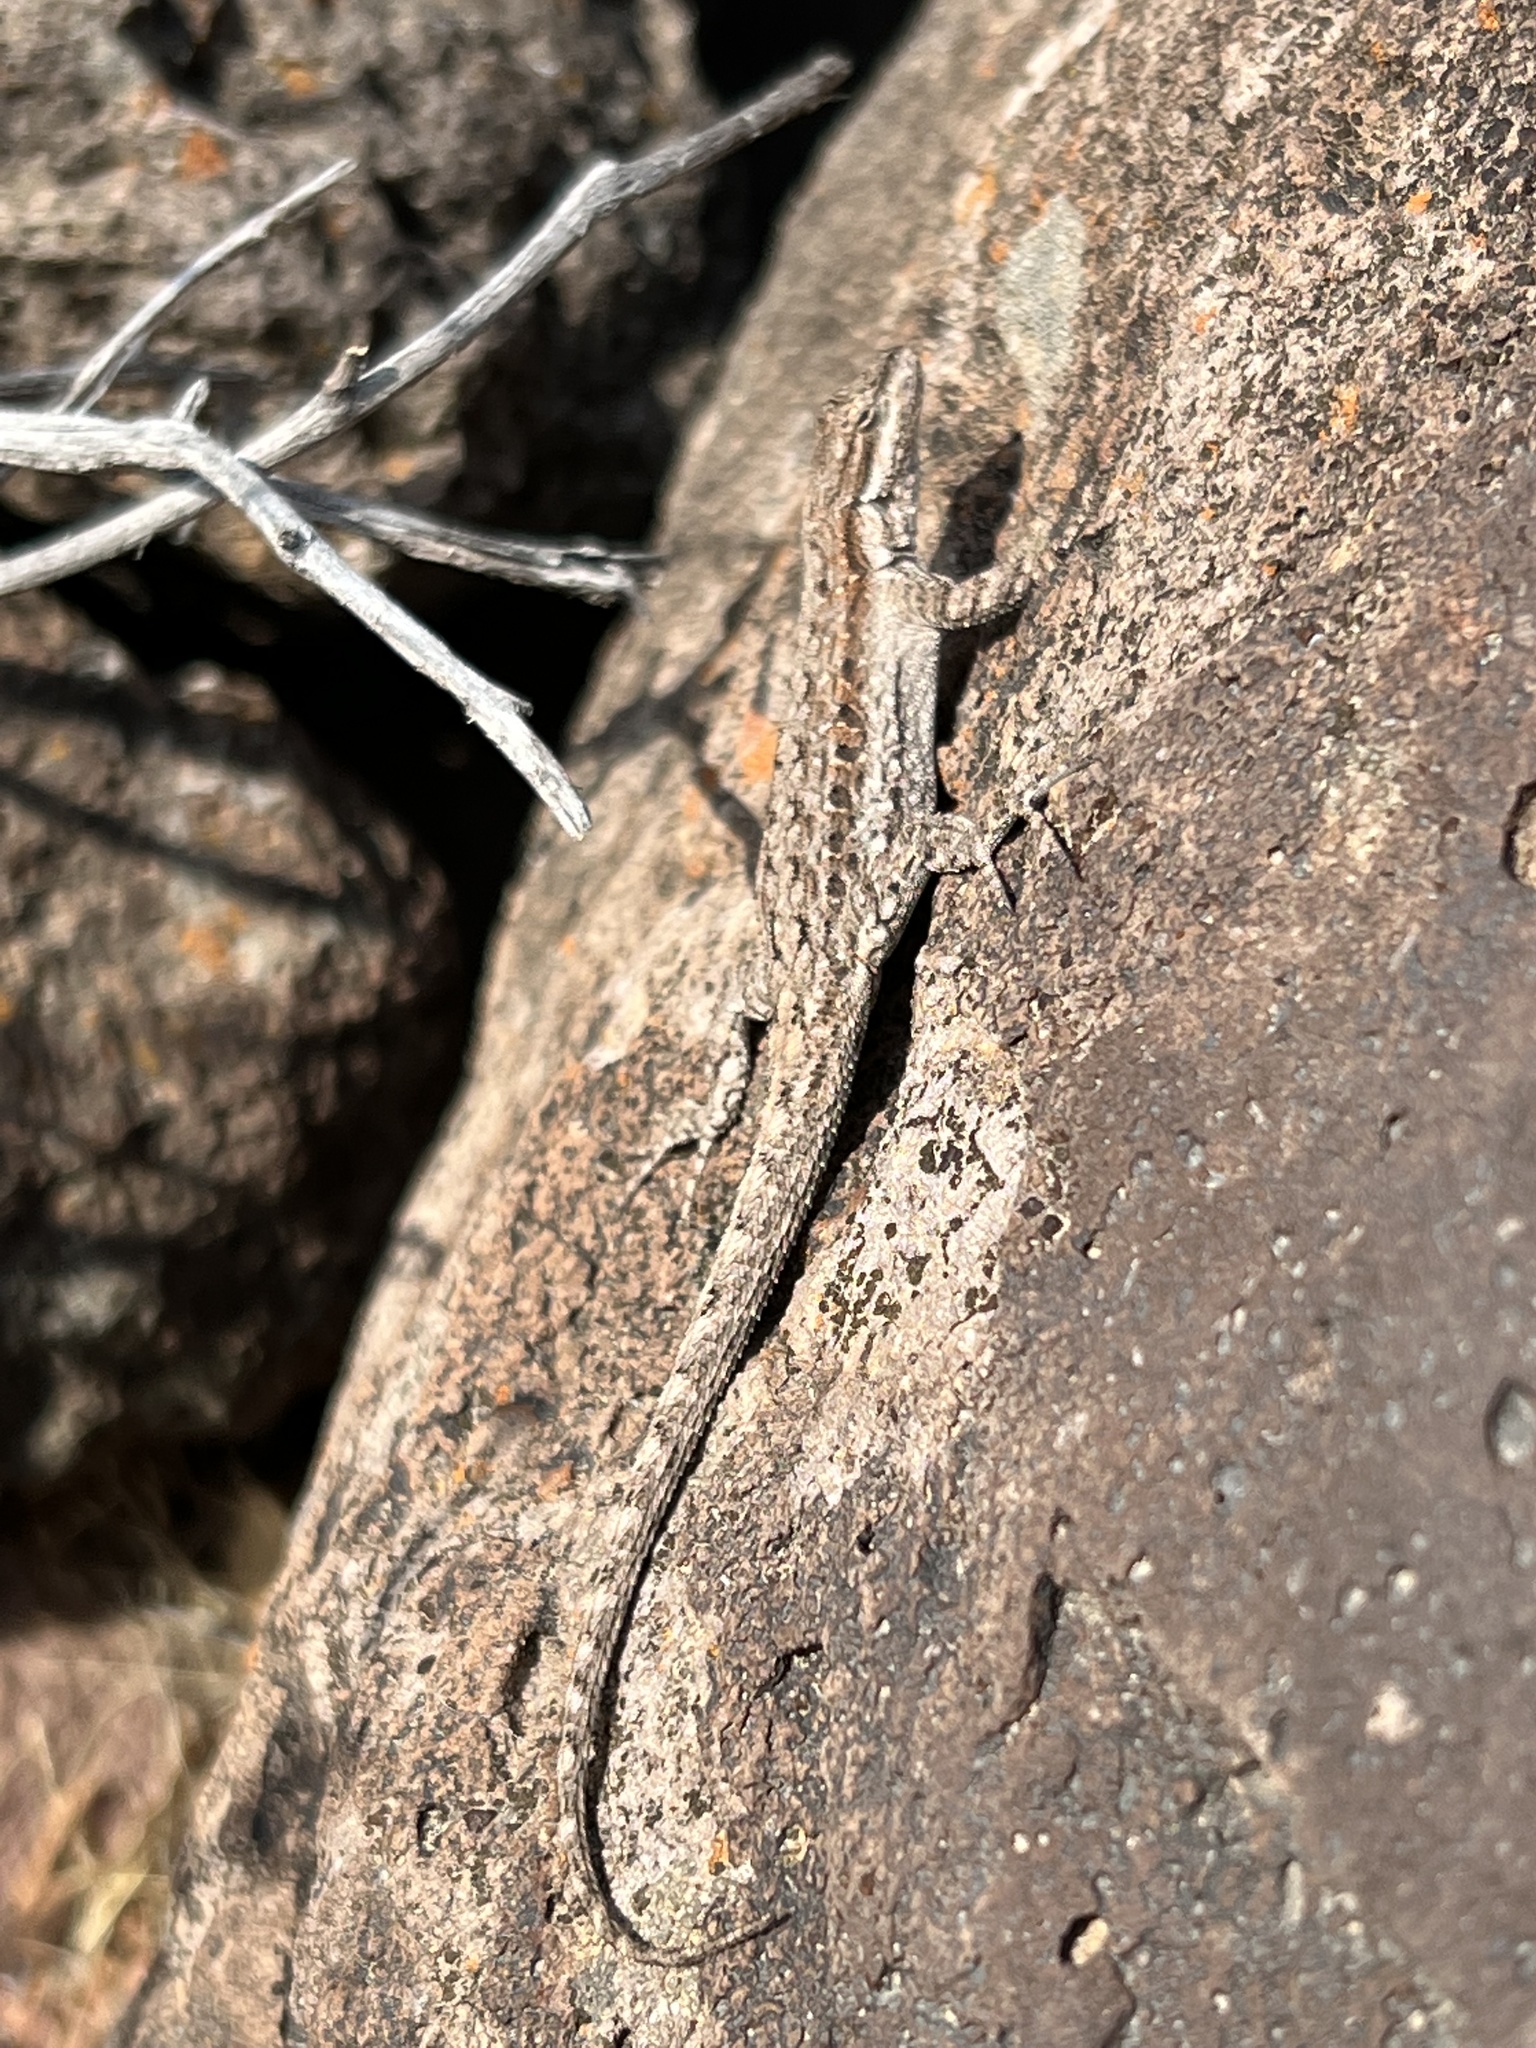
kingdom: Animalia
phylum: Chordata
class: Squamata
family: Phrynosomatidae
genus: Urosaurus
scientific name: Urosaurus ornatus
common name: Ornate tree lizard
